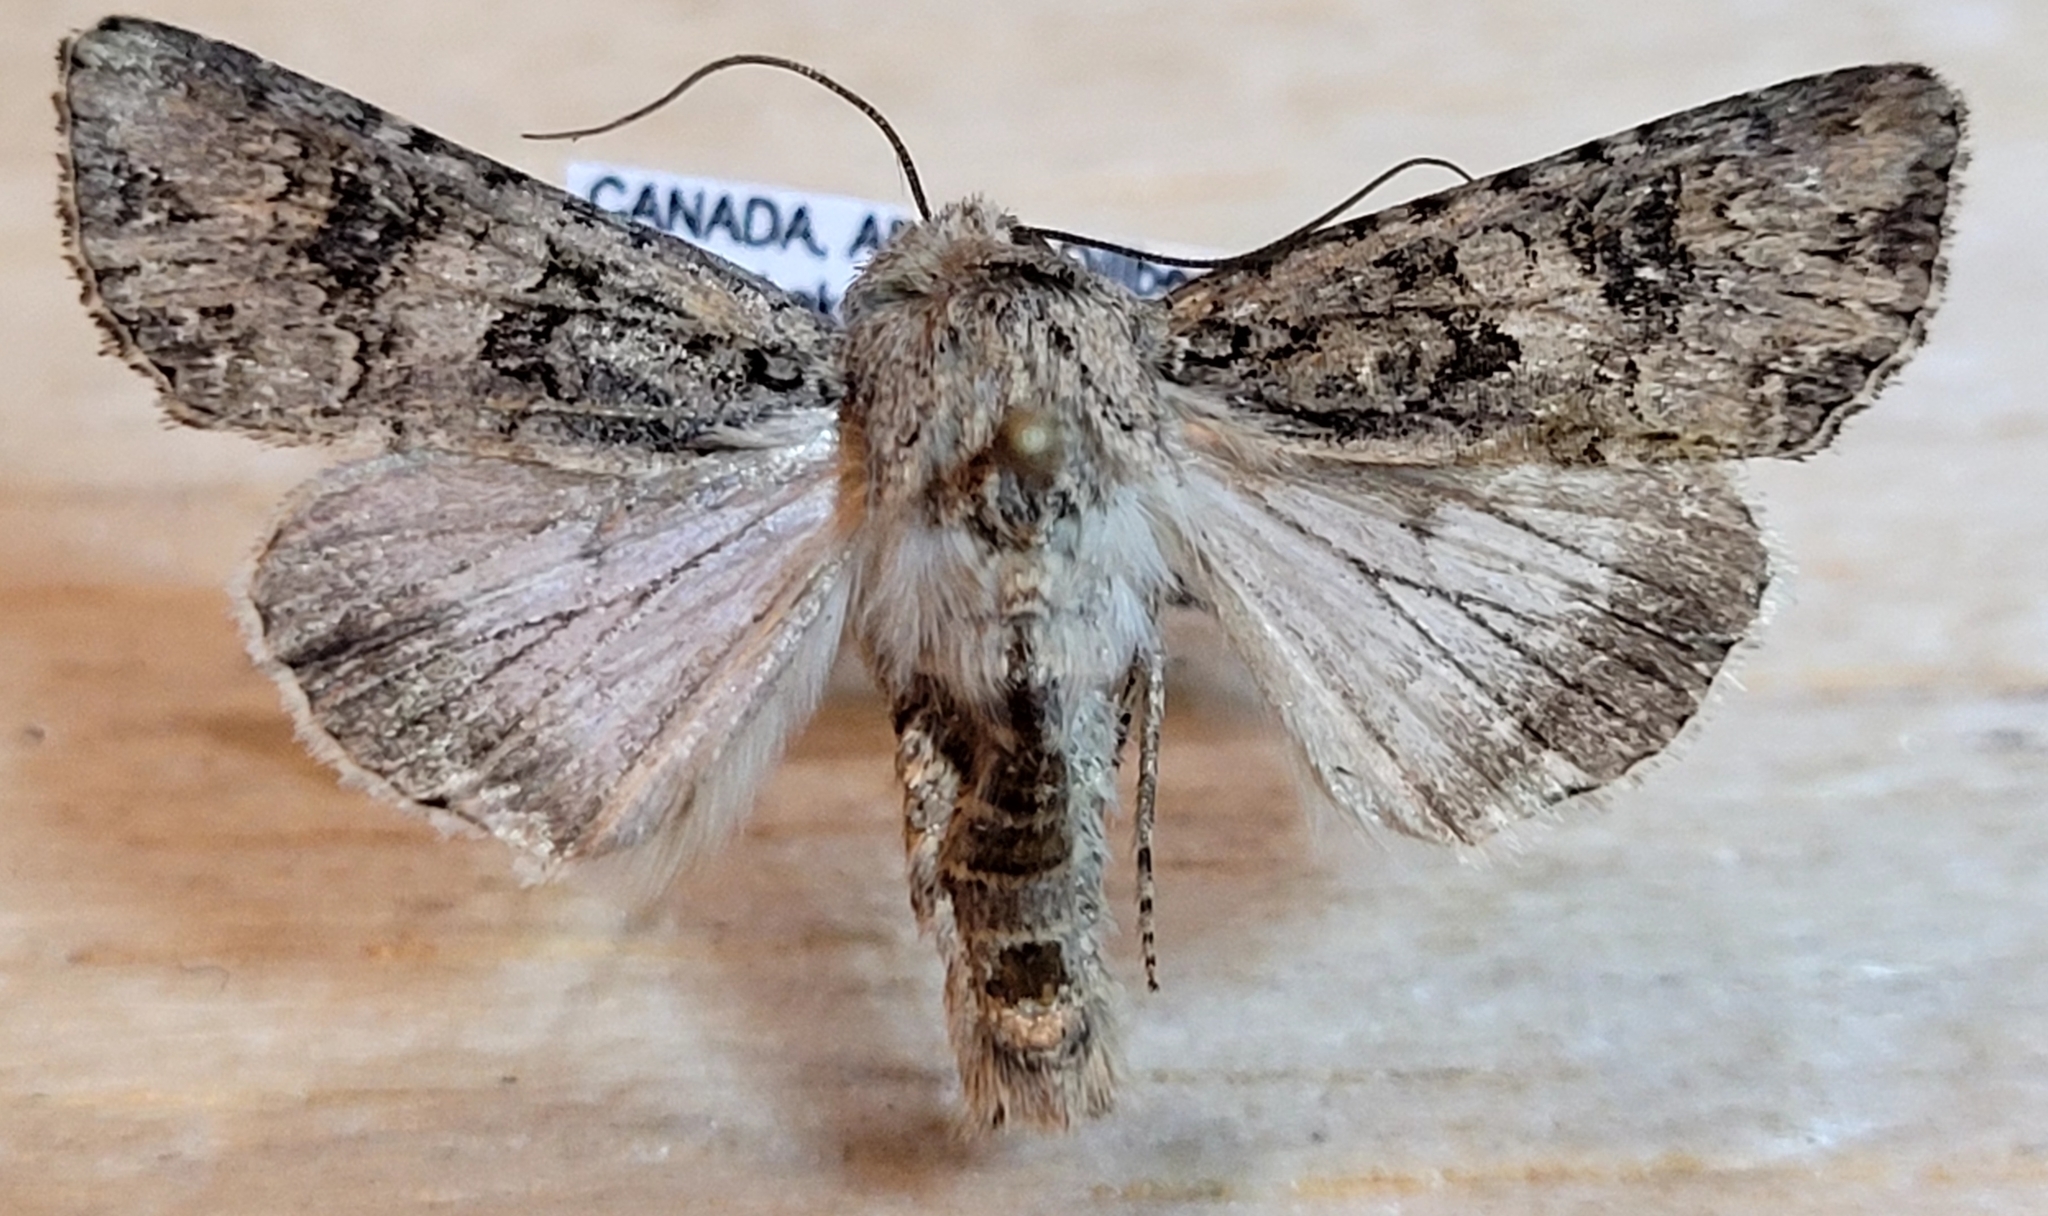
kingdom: Animalia
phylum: Arthropoda
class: Insecta
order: Lepidoptera
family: Noctuidae
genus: Anarta
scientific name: Anarta obesula
